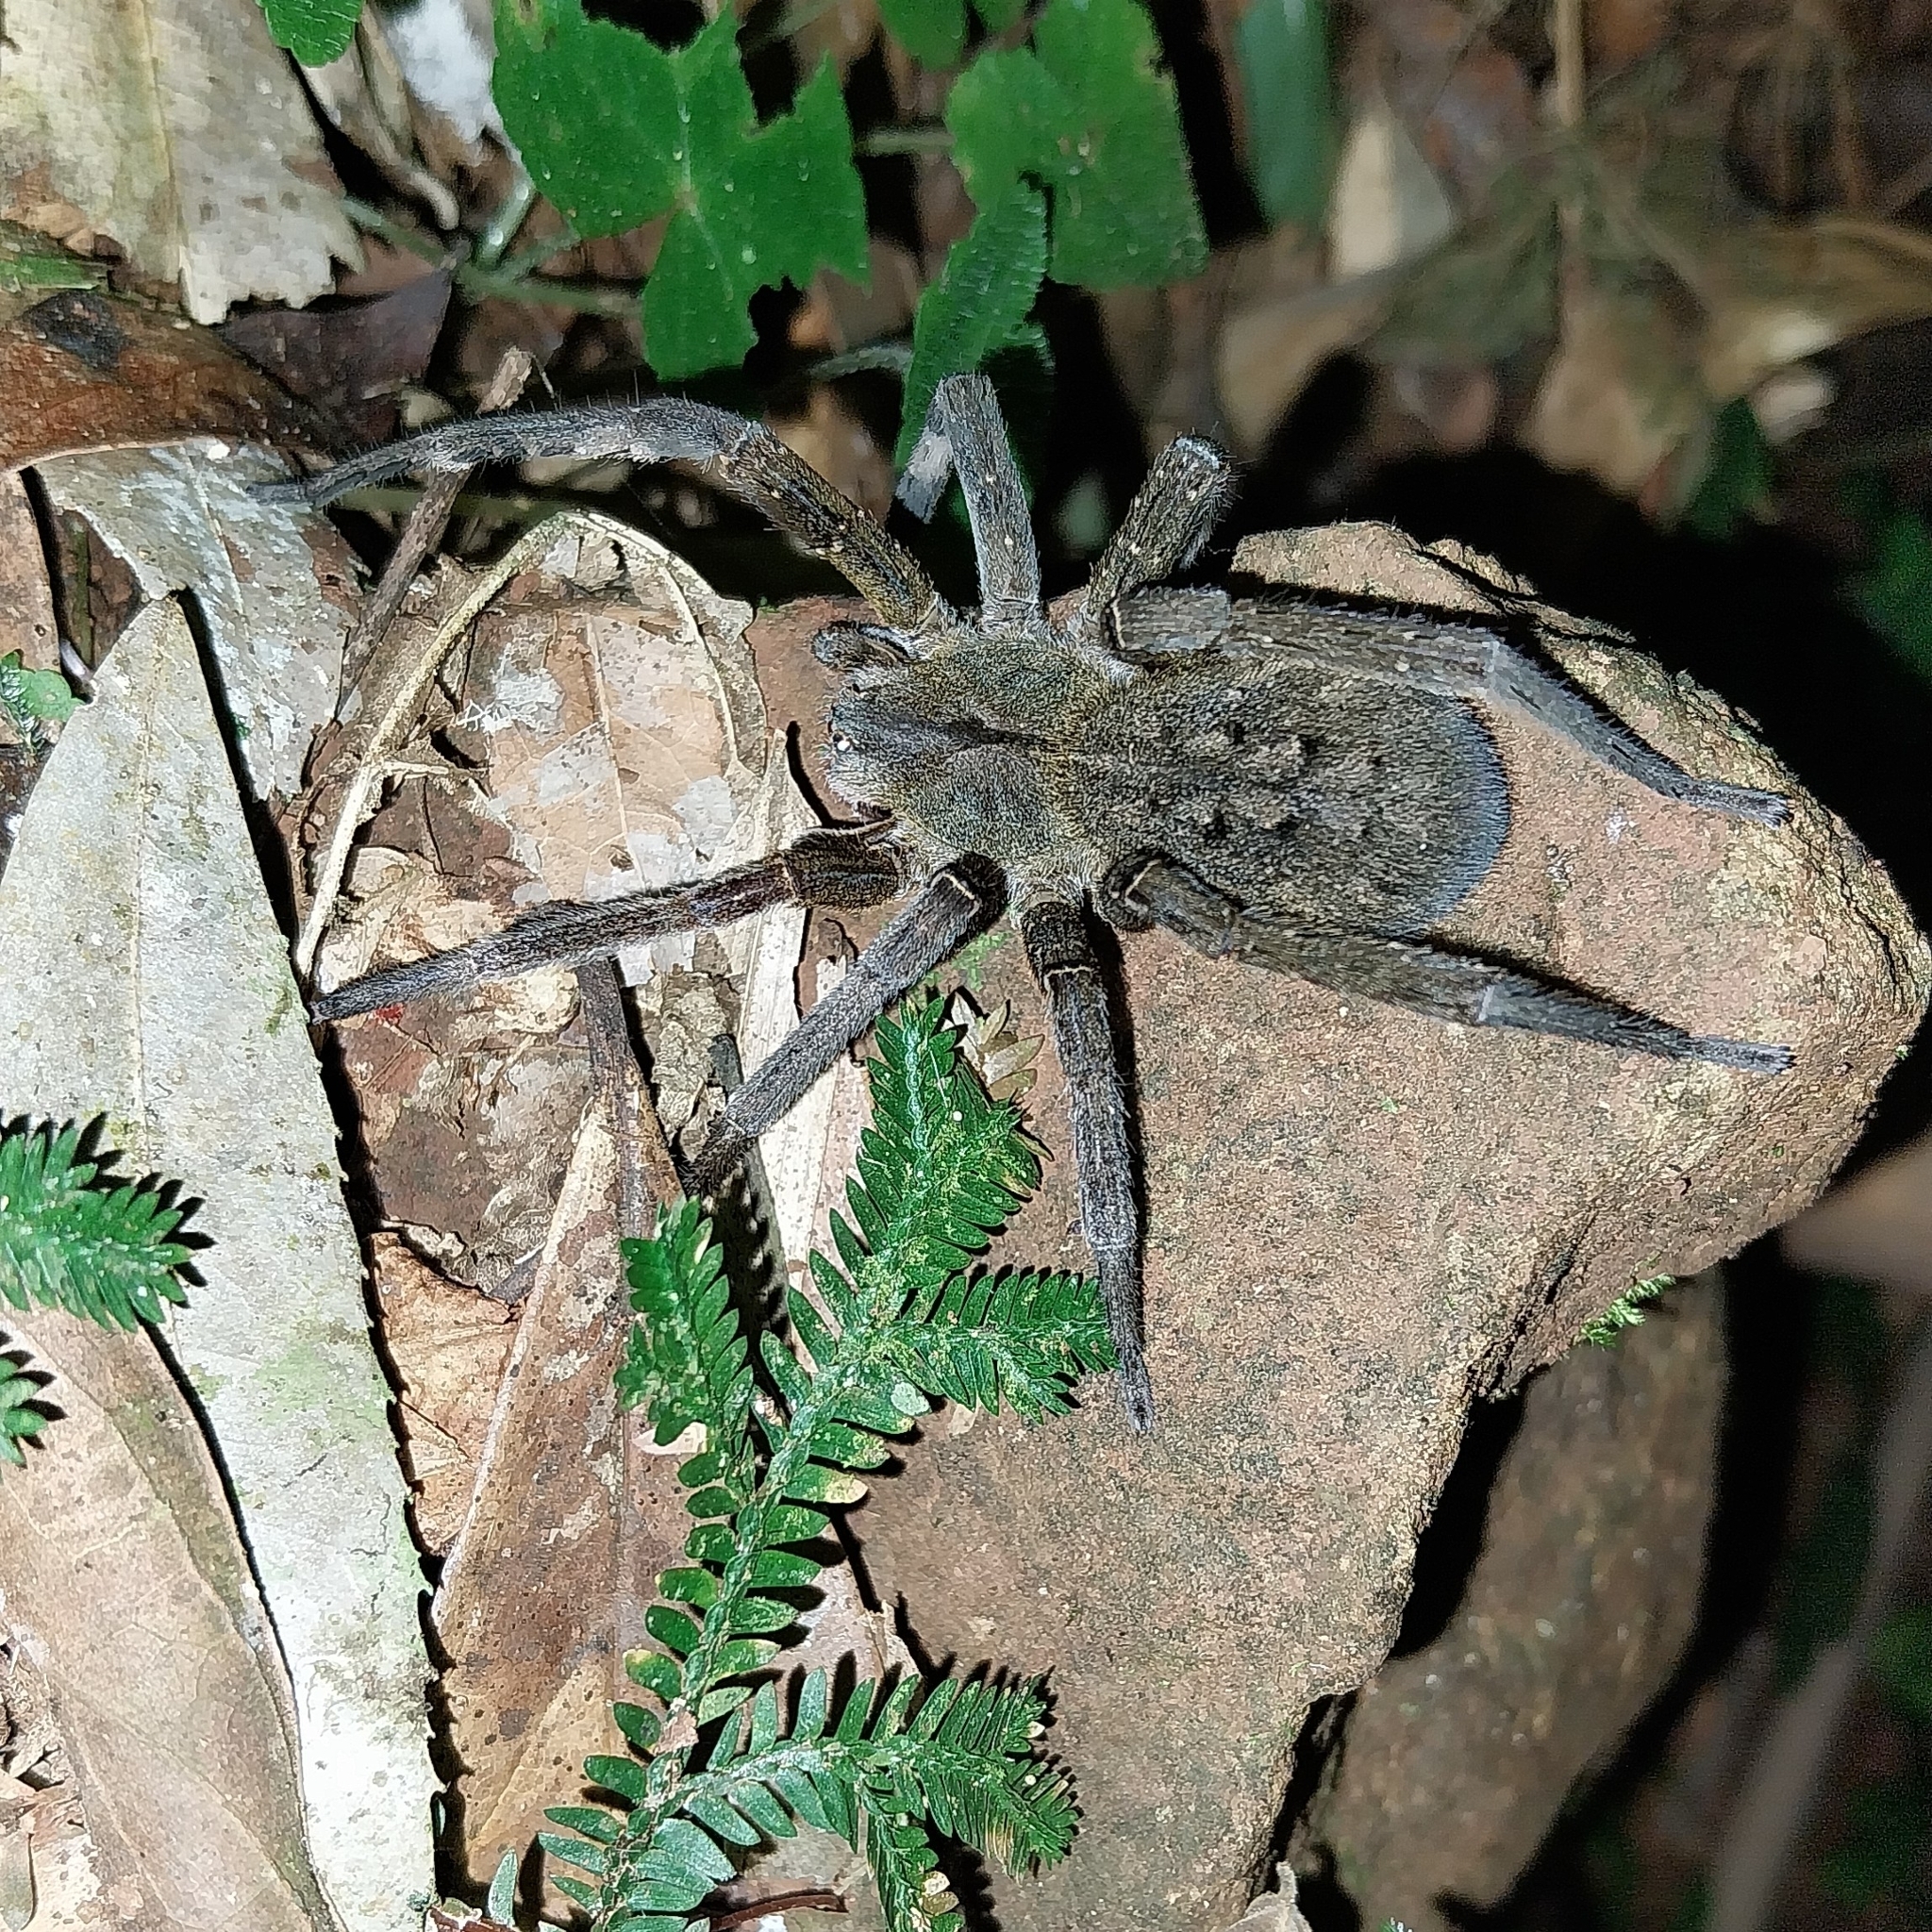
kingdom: Animalia
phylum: Arthropoda
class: Arachnida
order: Araneae
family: Ctenidae
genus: Phoneutria
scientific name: Phoneutria nigriventer
